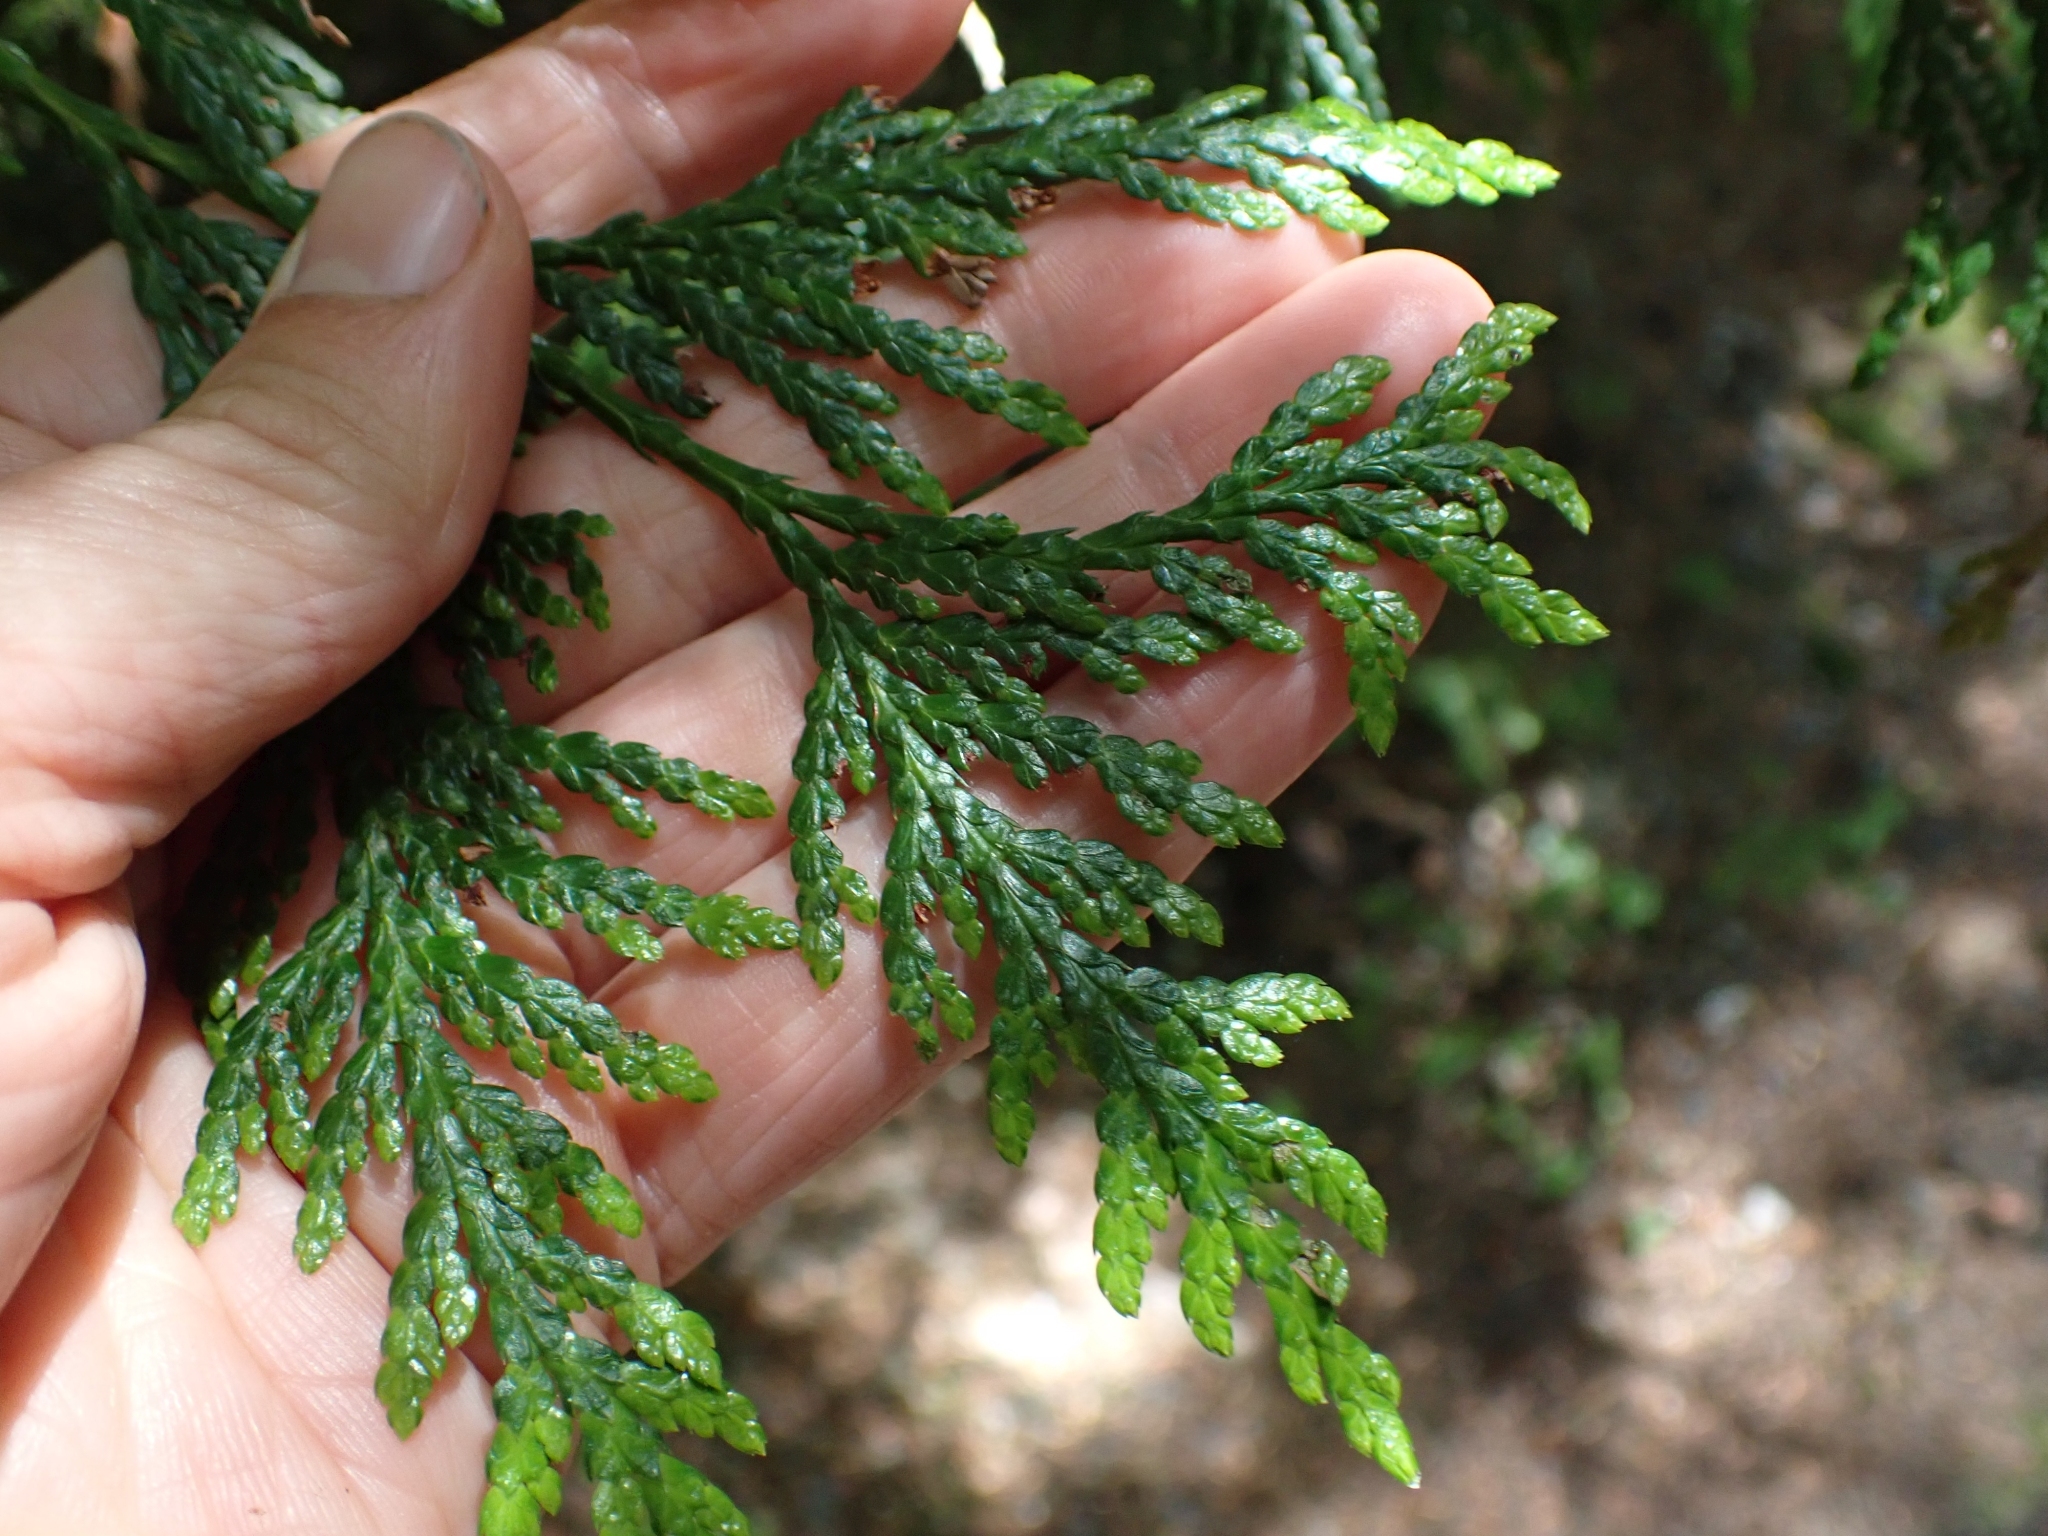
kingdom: Plantae
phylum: Tracheophyta
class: Pinopsida
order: Pinales
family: Cupressaceae
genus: Thuja
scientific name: Thuja plicata
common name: Western red-cedar
